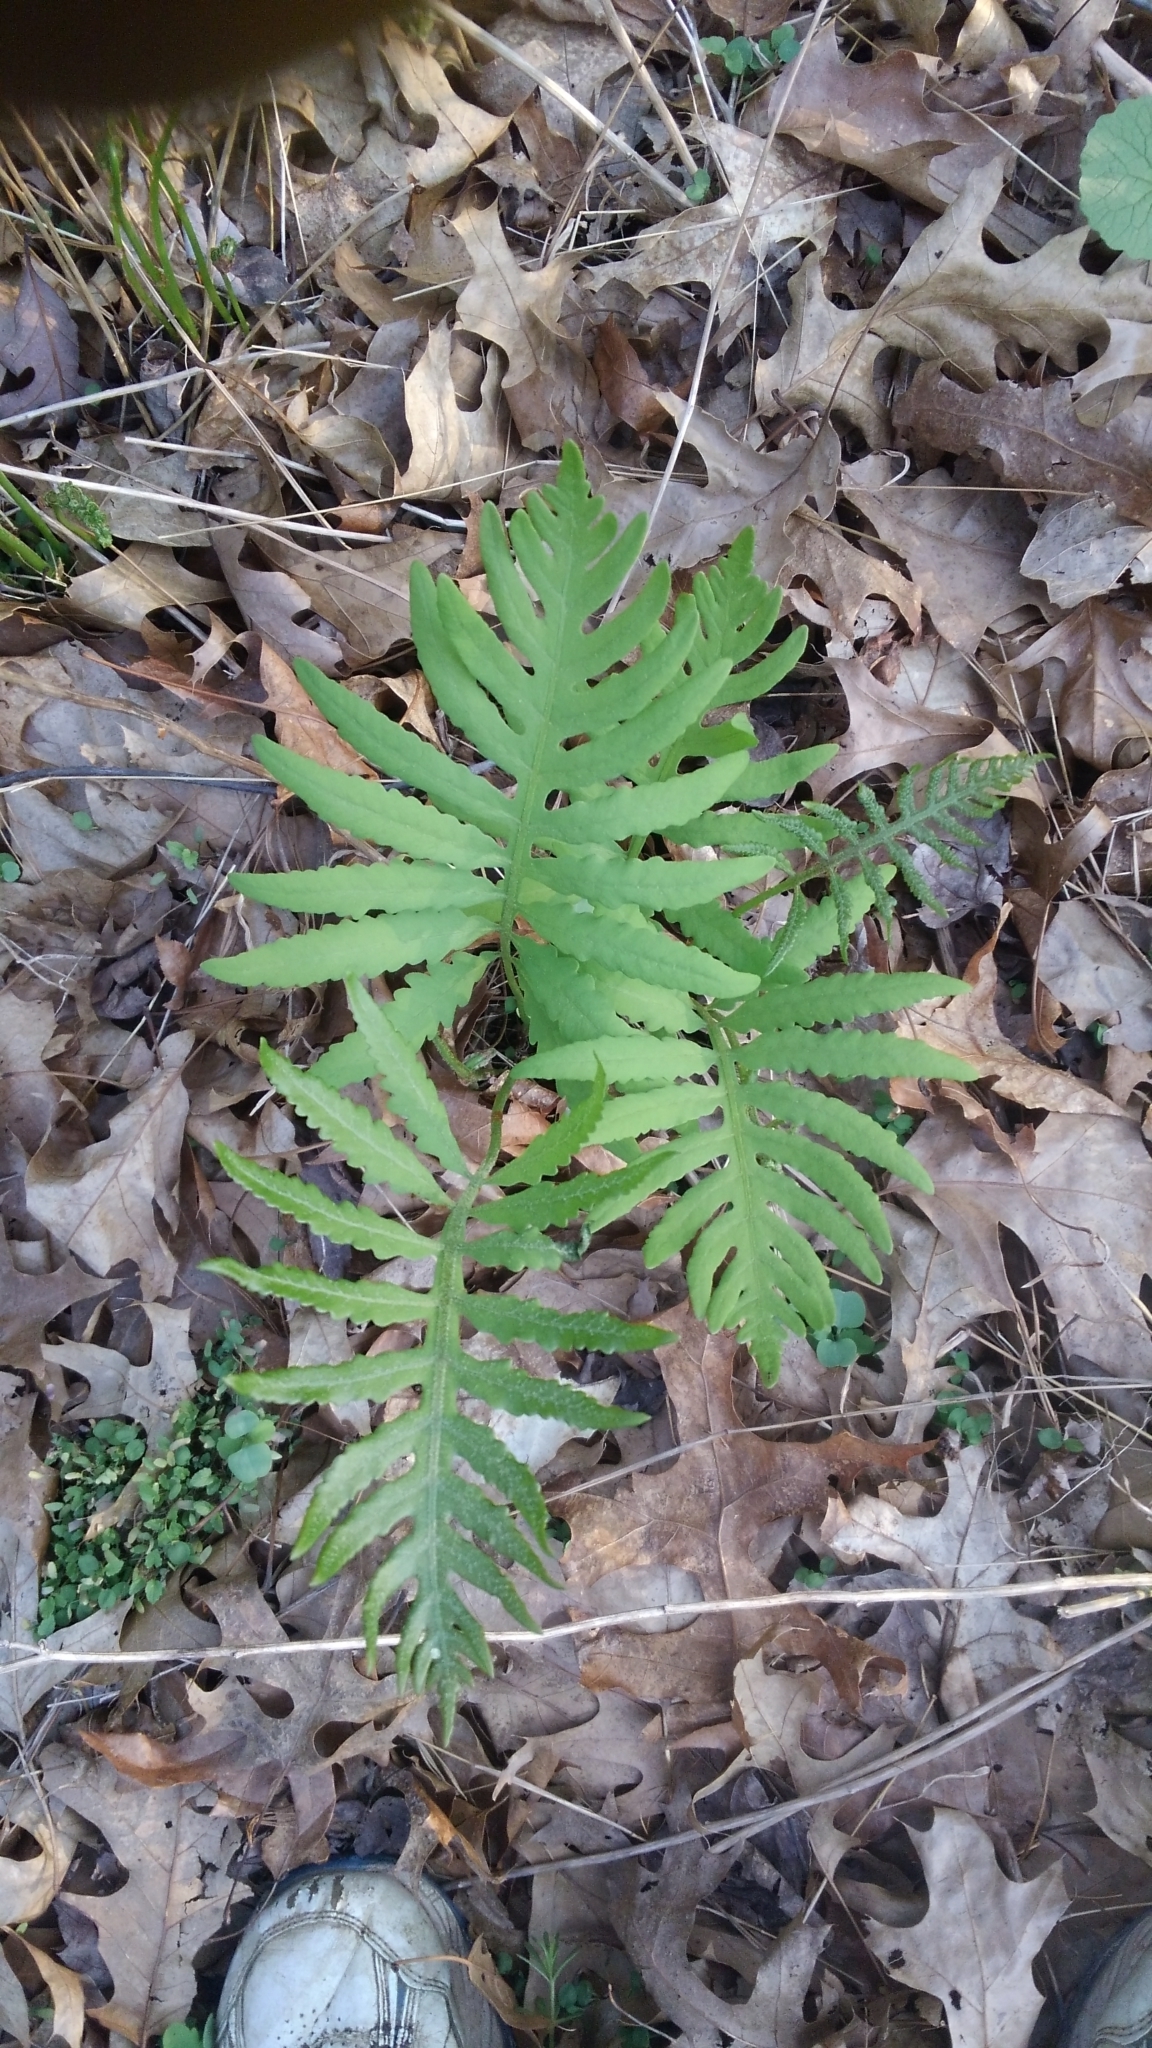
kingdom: Plantae
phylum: Tracheophyta
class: Polypodiopsida
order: Polypodiales
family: Onocleaceae
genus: Onoclea
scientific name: Onoclea sensibilis
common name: Sensitive fern
